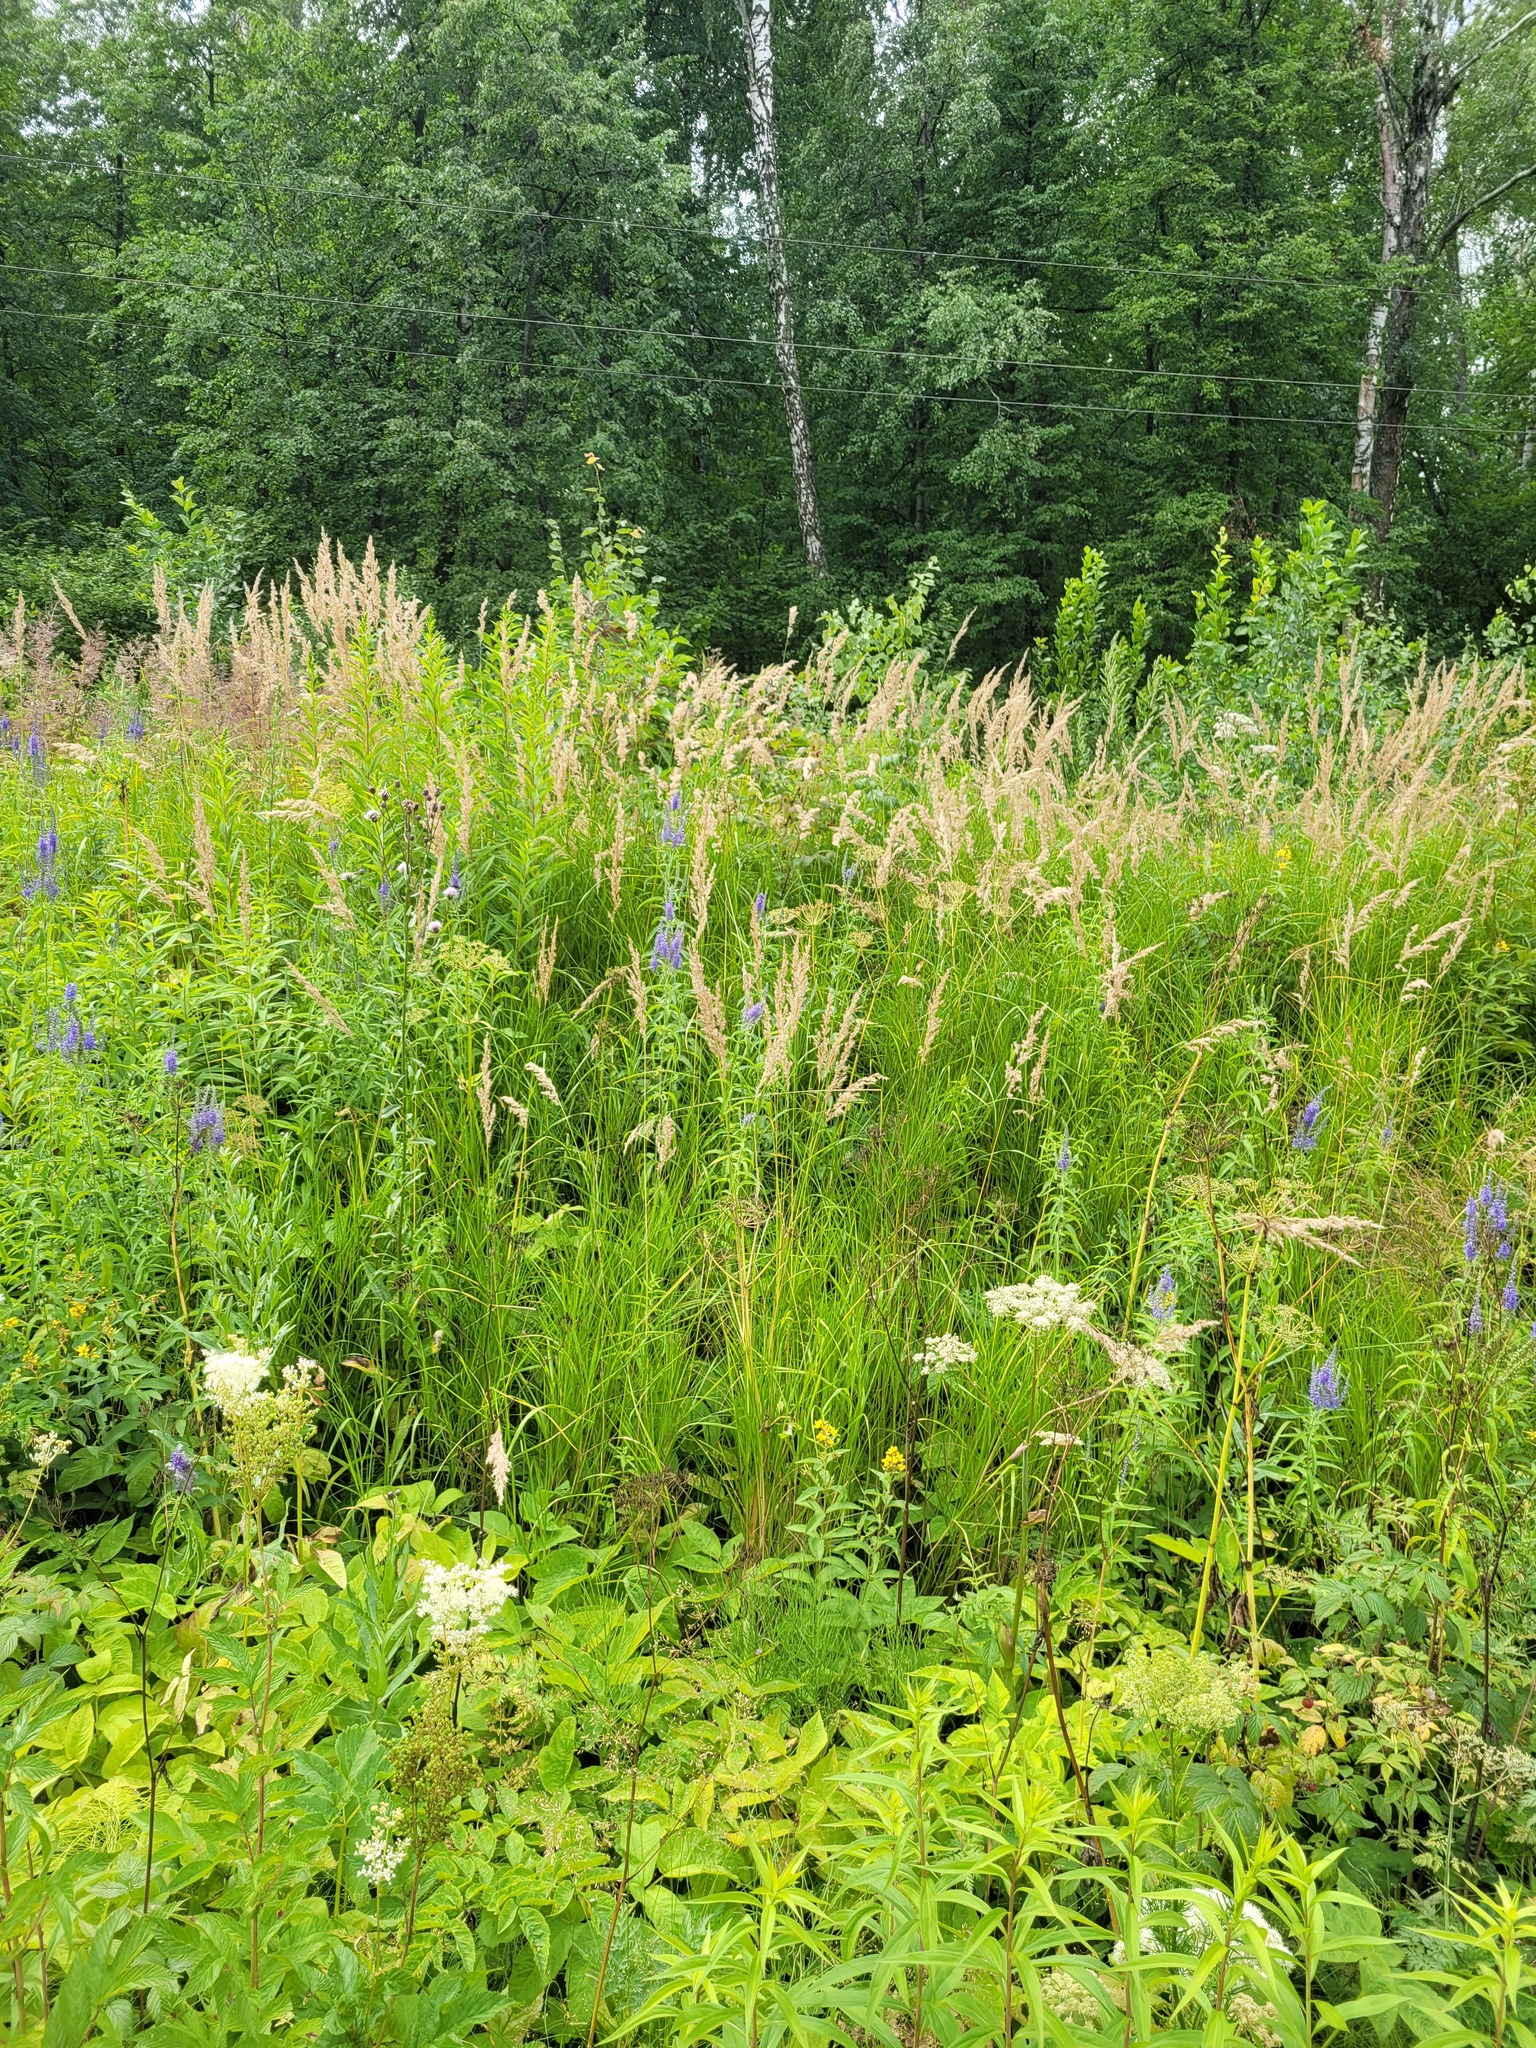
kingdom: Plantae
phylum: Tracheophyta
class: Liliopsida
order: Poales
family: Poaceae
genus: Calamagrostis
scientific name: Calamagrostis canescens
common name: Purple small-reed
